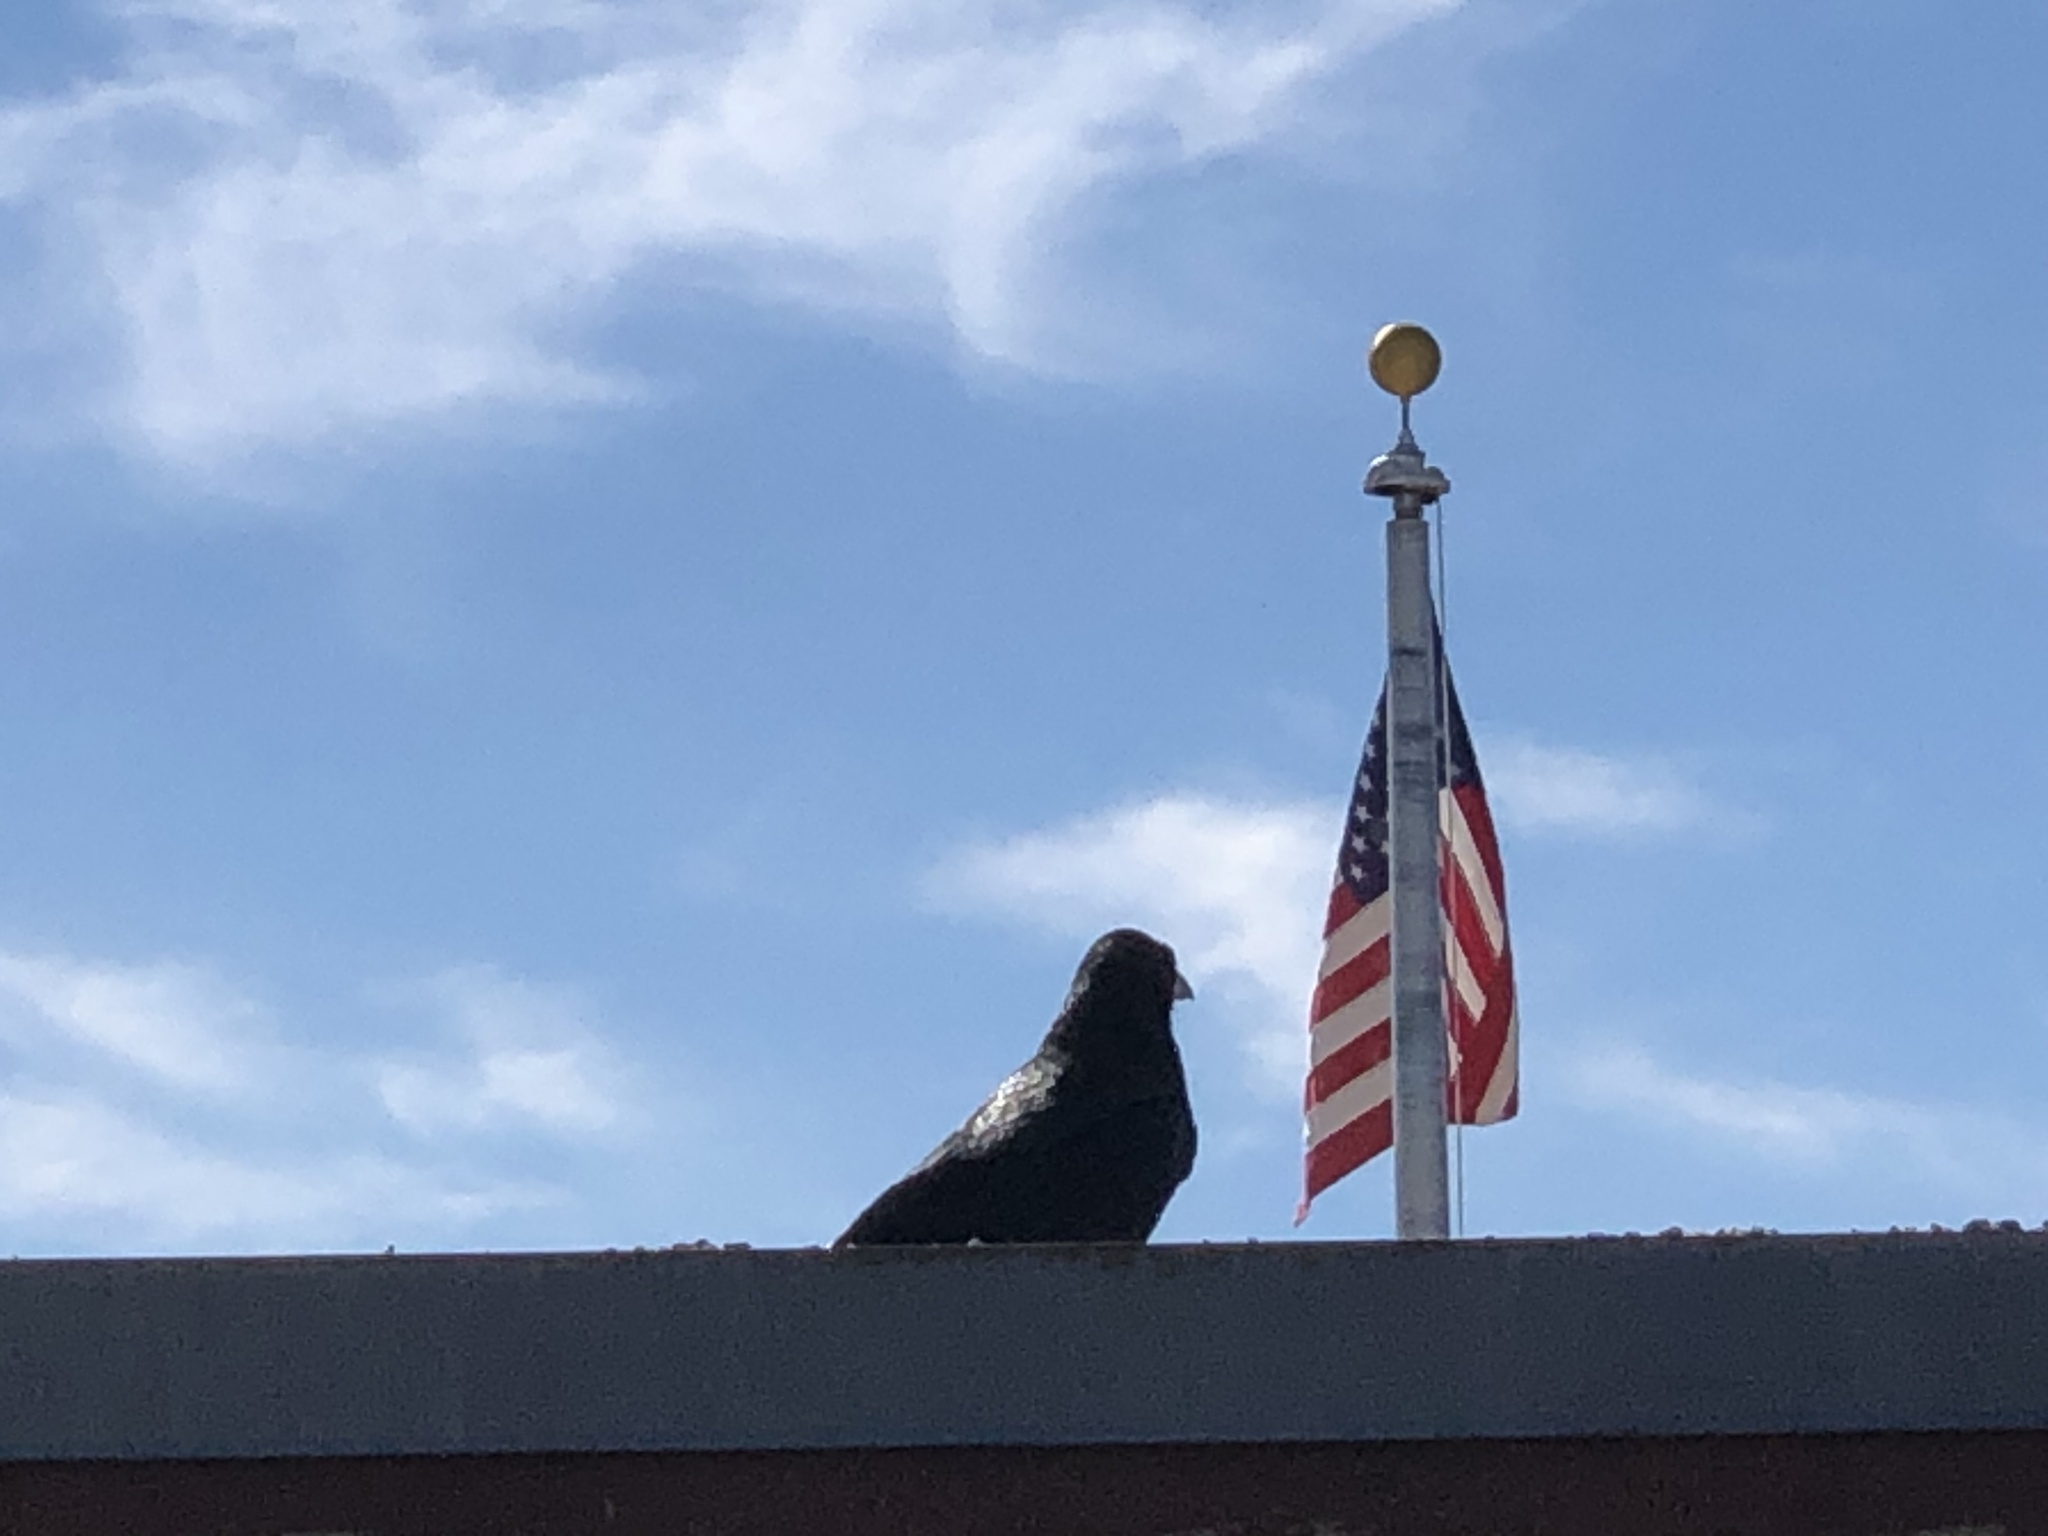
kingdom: Animalia
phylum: Chordata
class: Aves
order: Passeriformes
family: Corvidae
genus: Corvus
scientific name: Corvus corax
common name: Common raven
